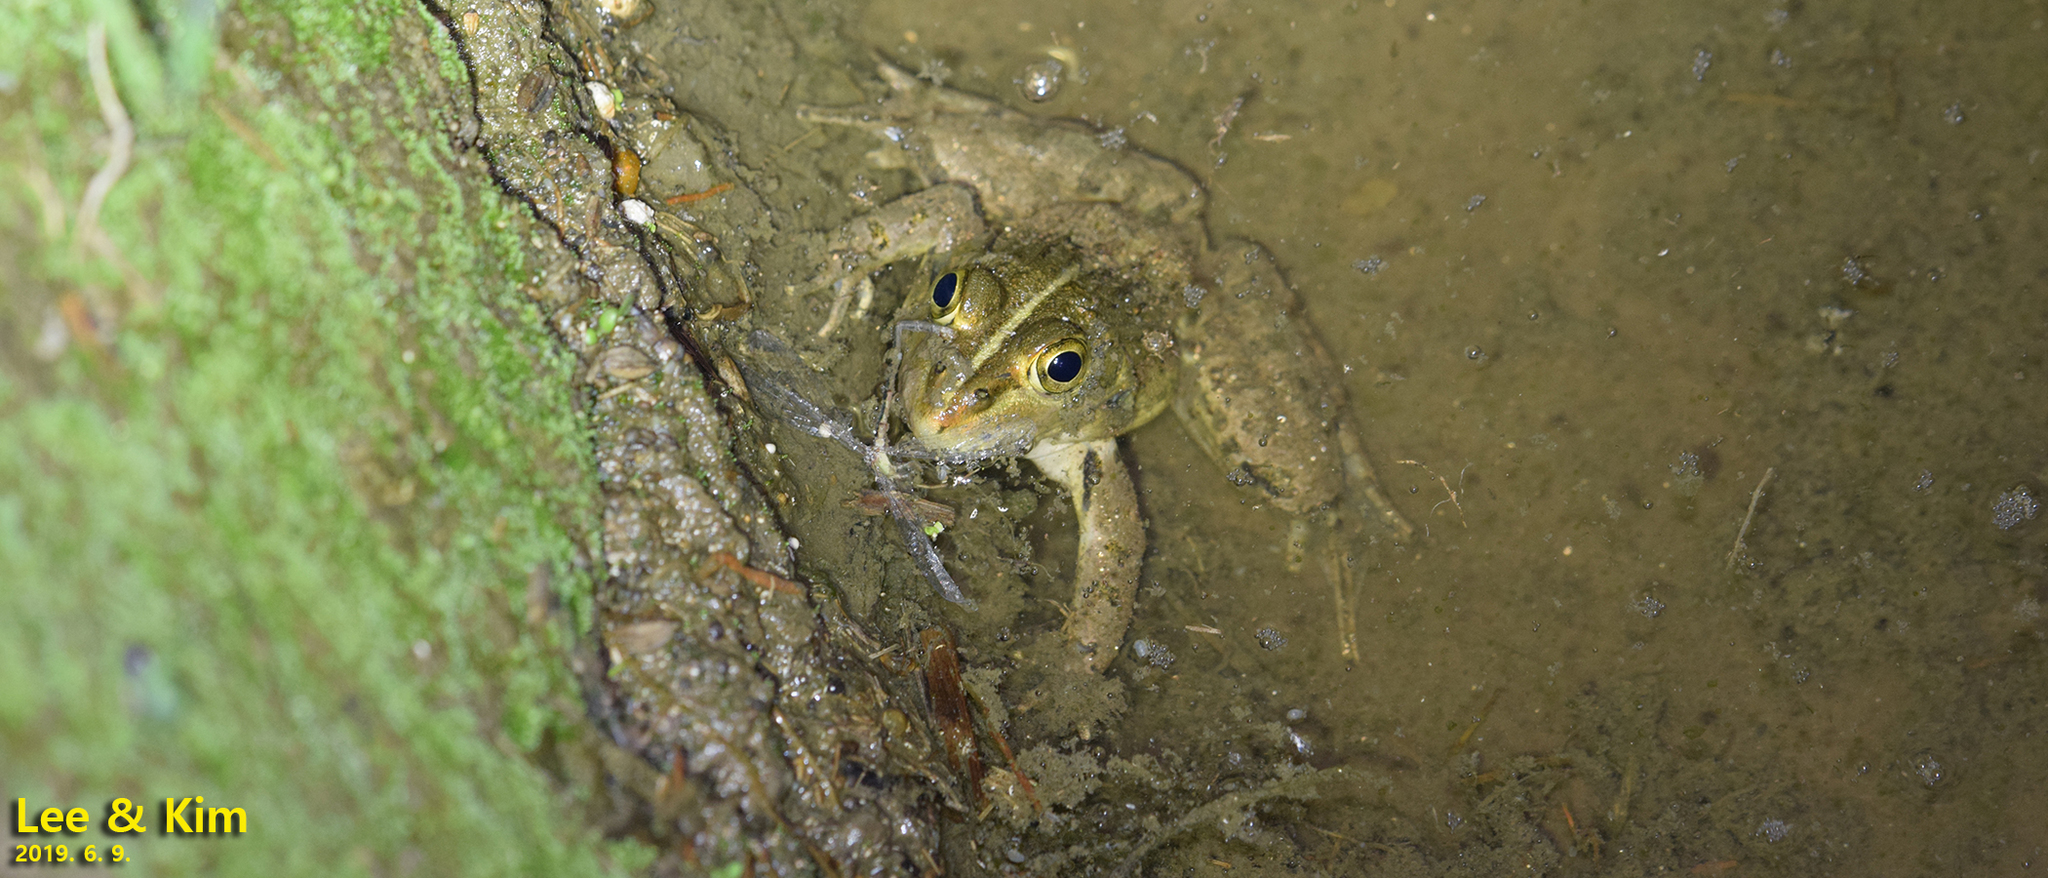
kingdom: Animalia
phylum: Chordata
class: Amphibia
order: Anura
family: Ranidae
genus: Pelophylax
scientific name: Pelophylax nigromaculatus
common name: Black-spotted pond frog
